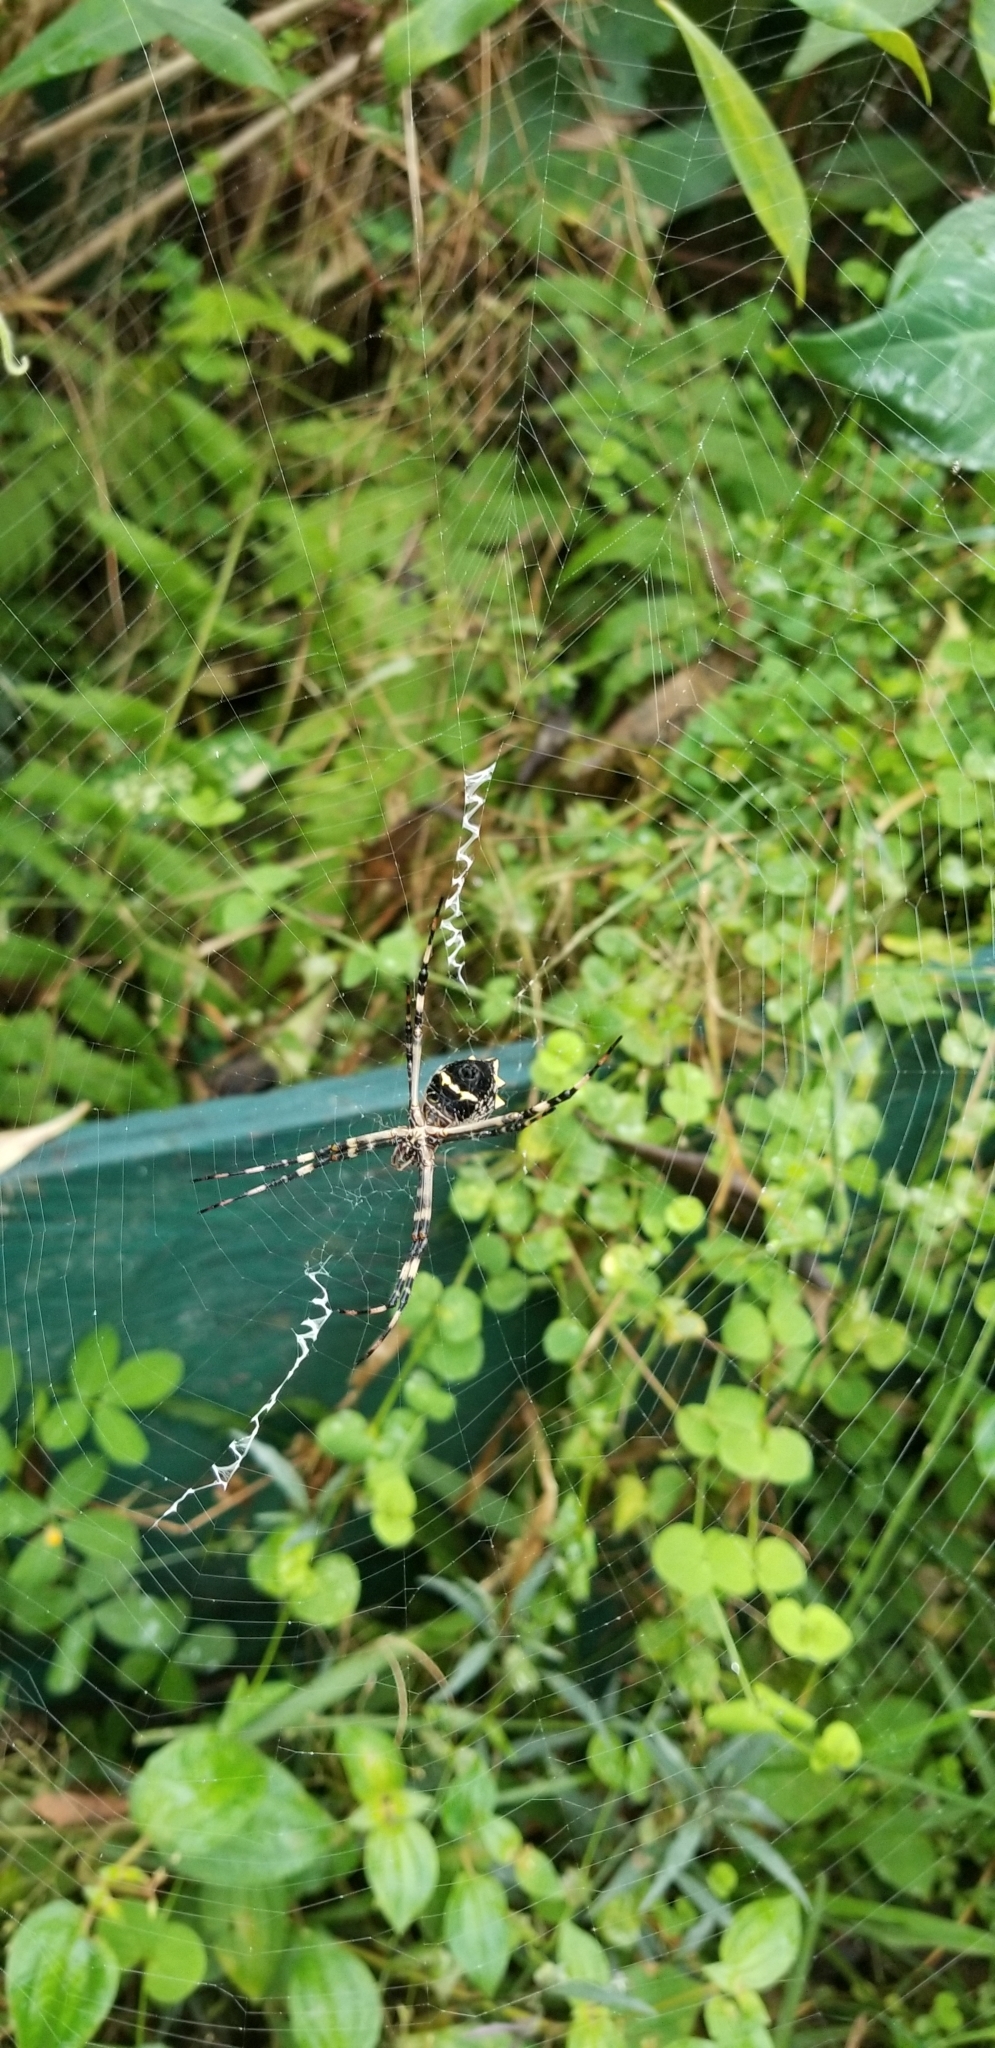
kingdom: Animalia
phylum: Arthropoda
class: Arachnida
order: Araneae
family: Araneidae
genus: Argiope
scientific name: Argiope argentata
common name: Orb weavers
